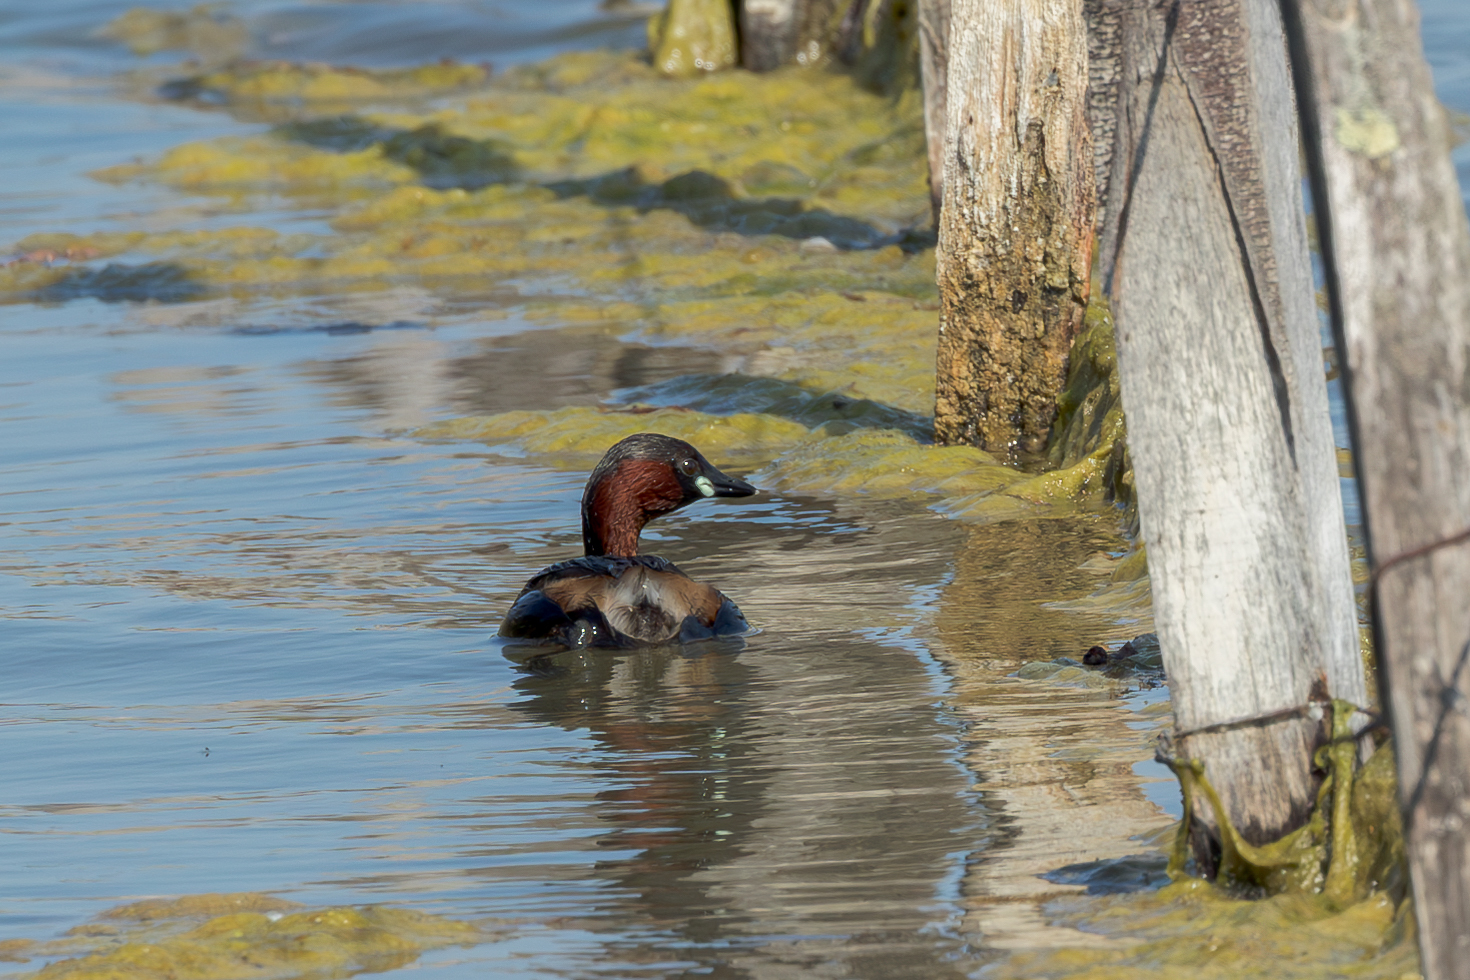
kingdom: Animalia
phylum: Chordata
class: Aves
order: Podicipediformes
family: Podicipedidae
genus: Tachybaptus
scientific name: Tachybaptus ruficollis
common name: Little grebe
